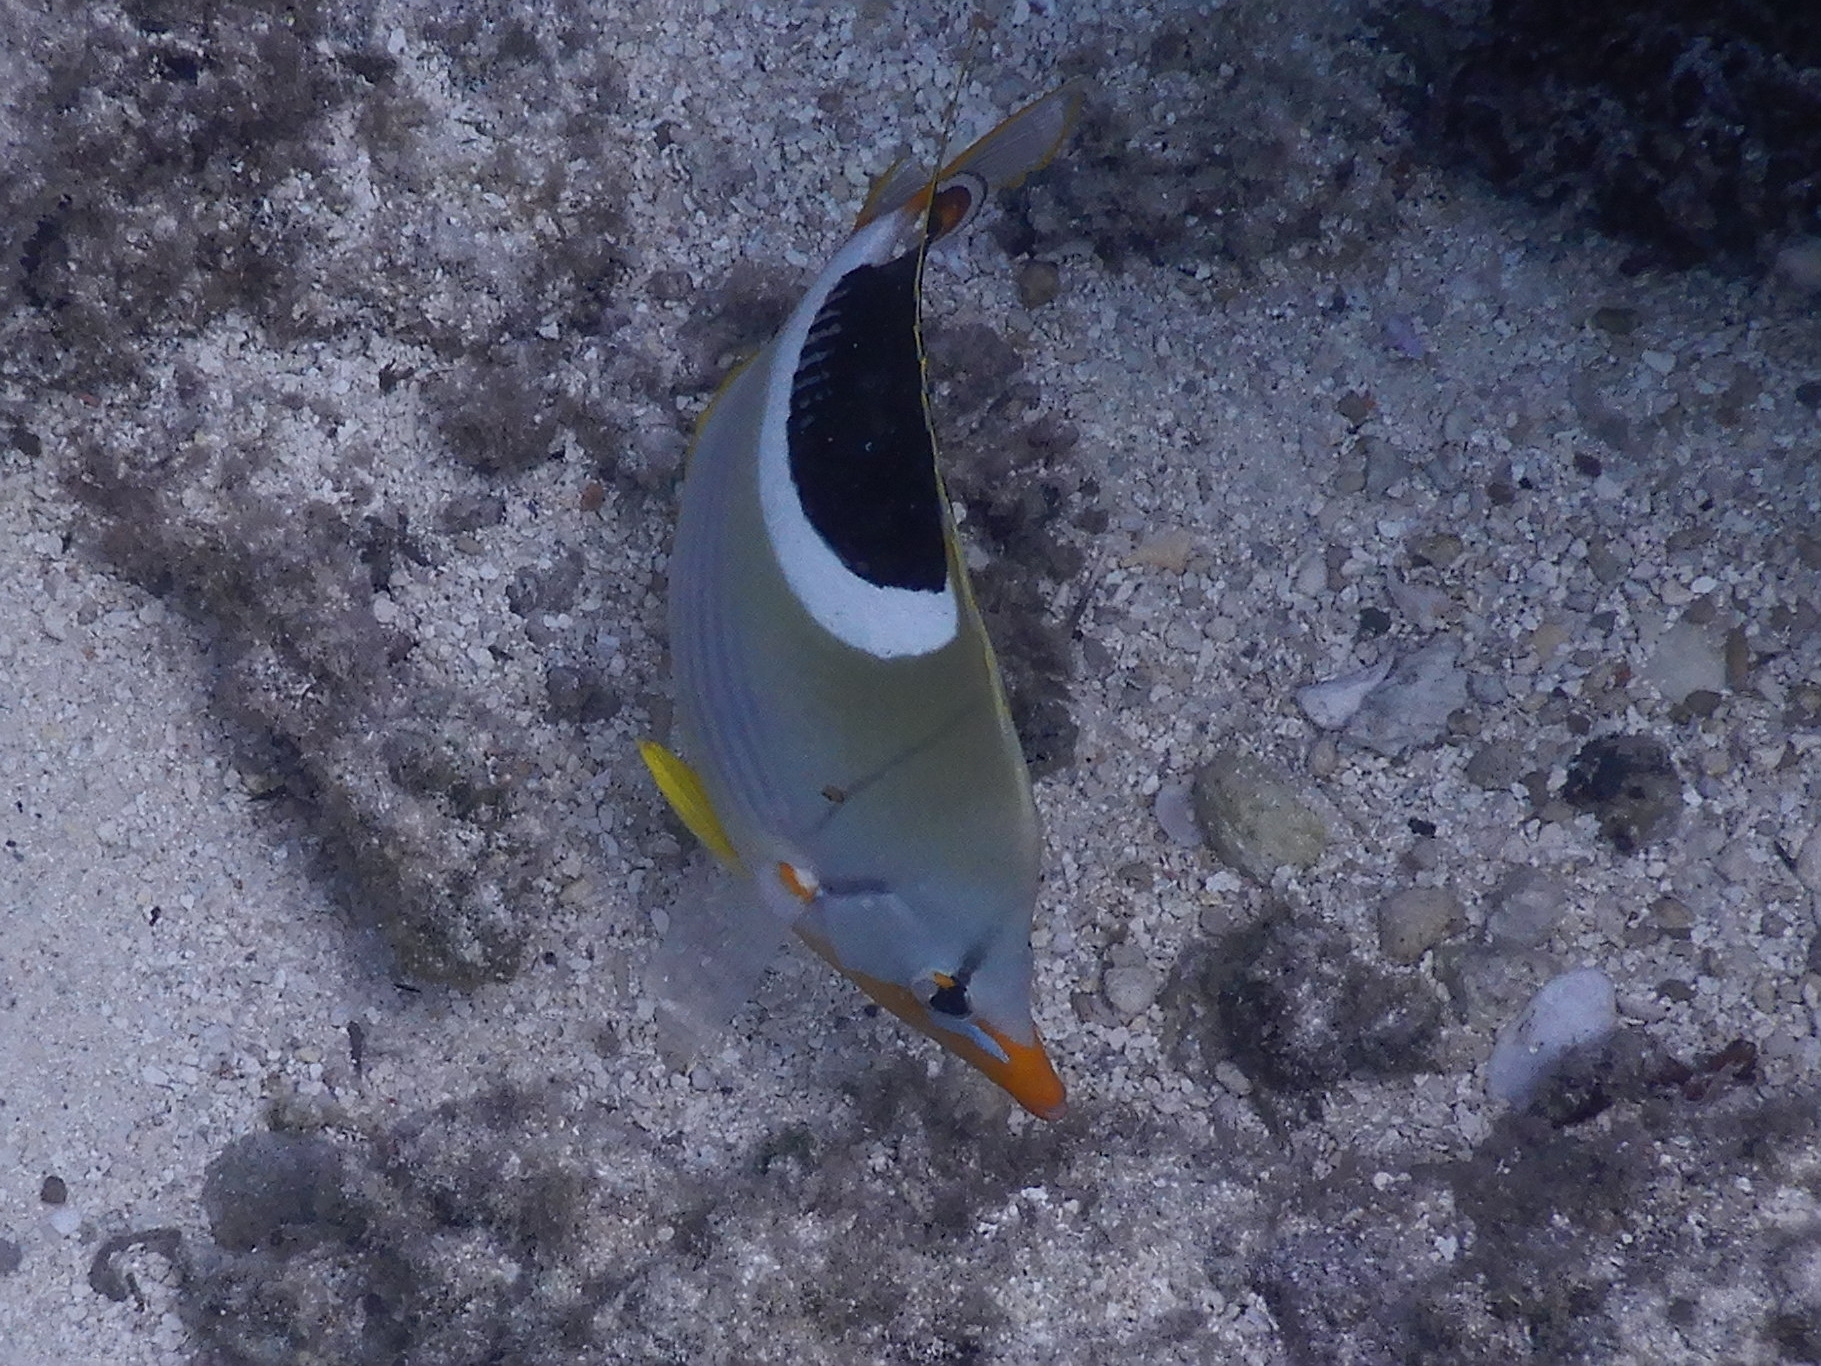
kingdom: Animalia
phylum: Chordata
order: Perciformes
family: Chaetodontidae
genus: Chaetodon
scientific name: Chaetodon ephippium
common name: Saddled butterflyfish
